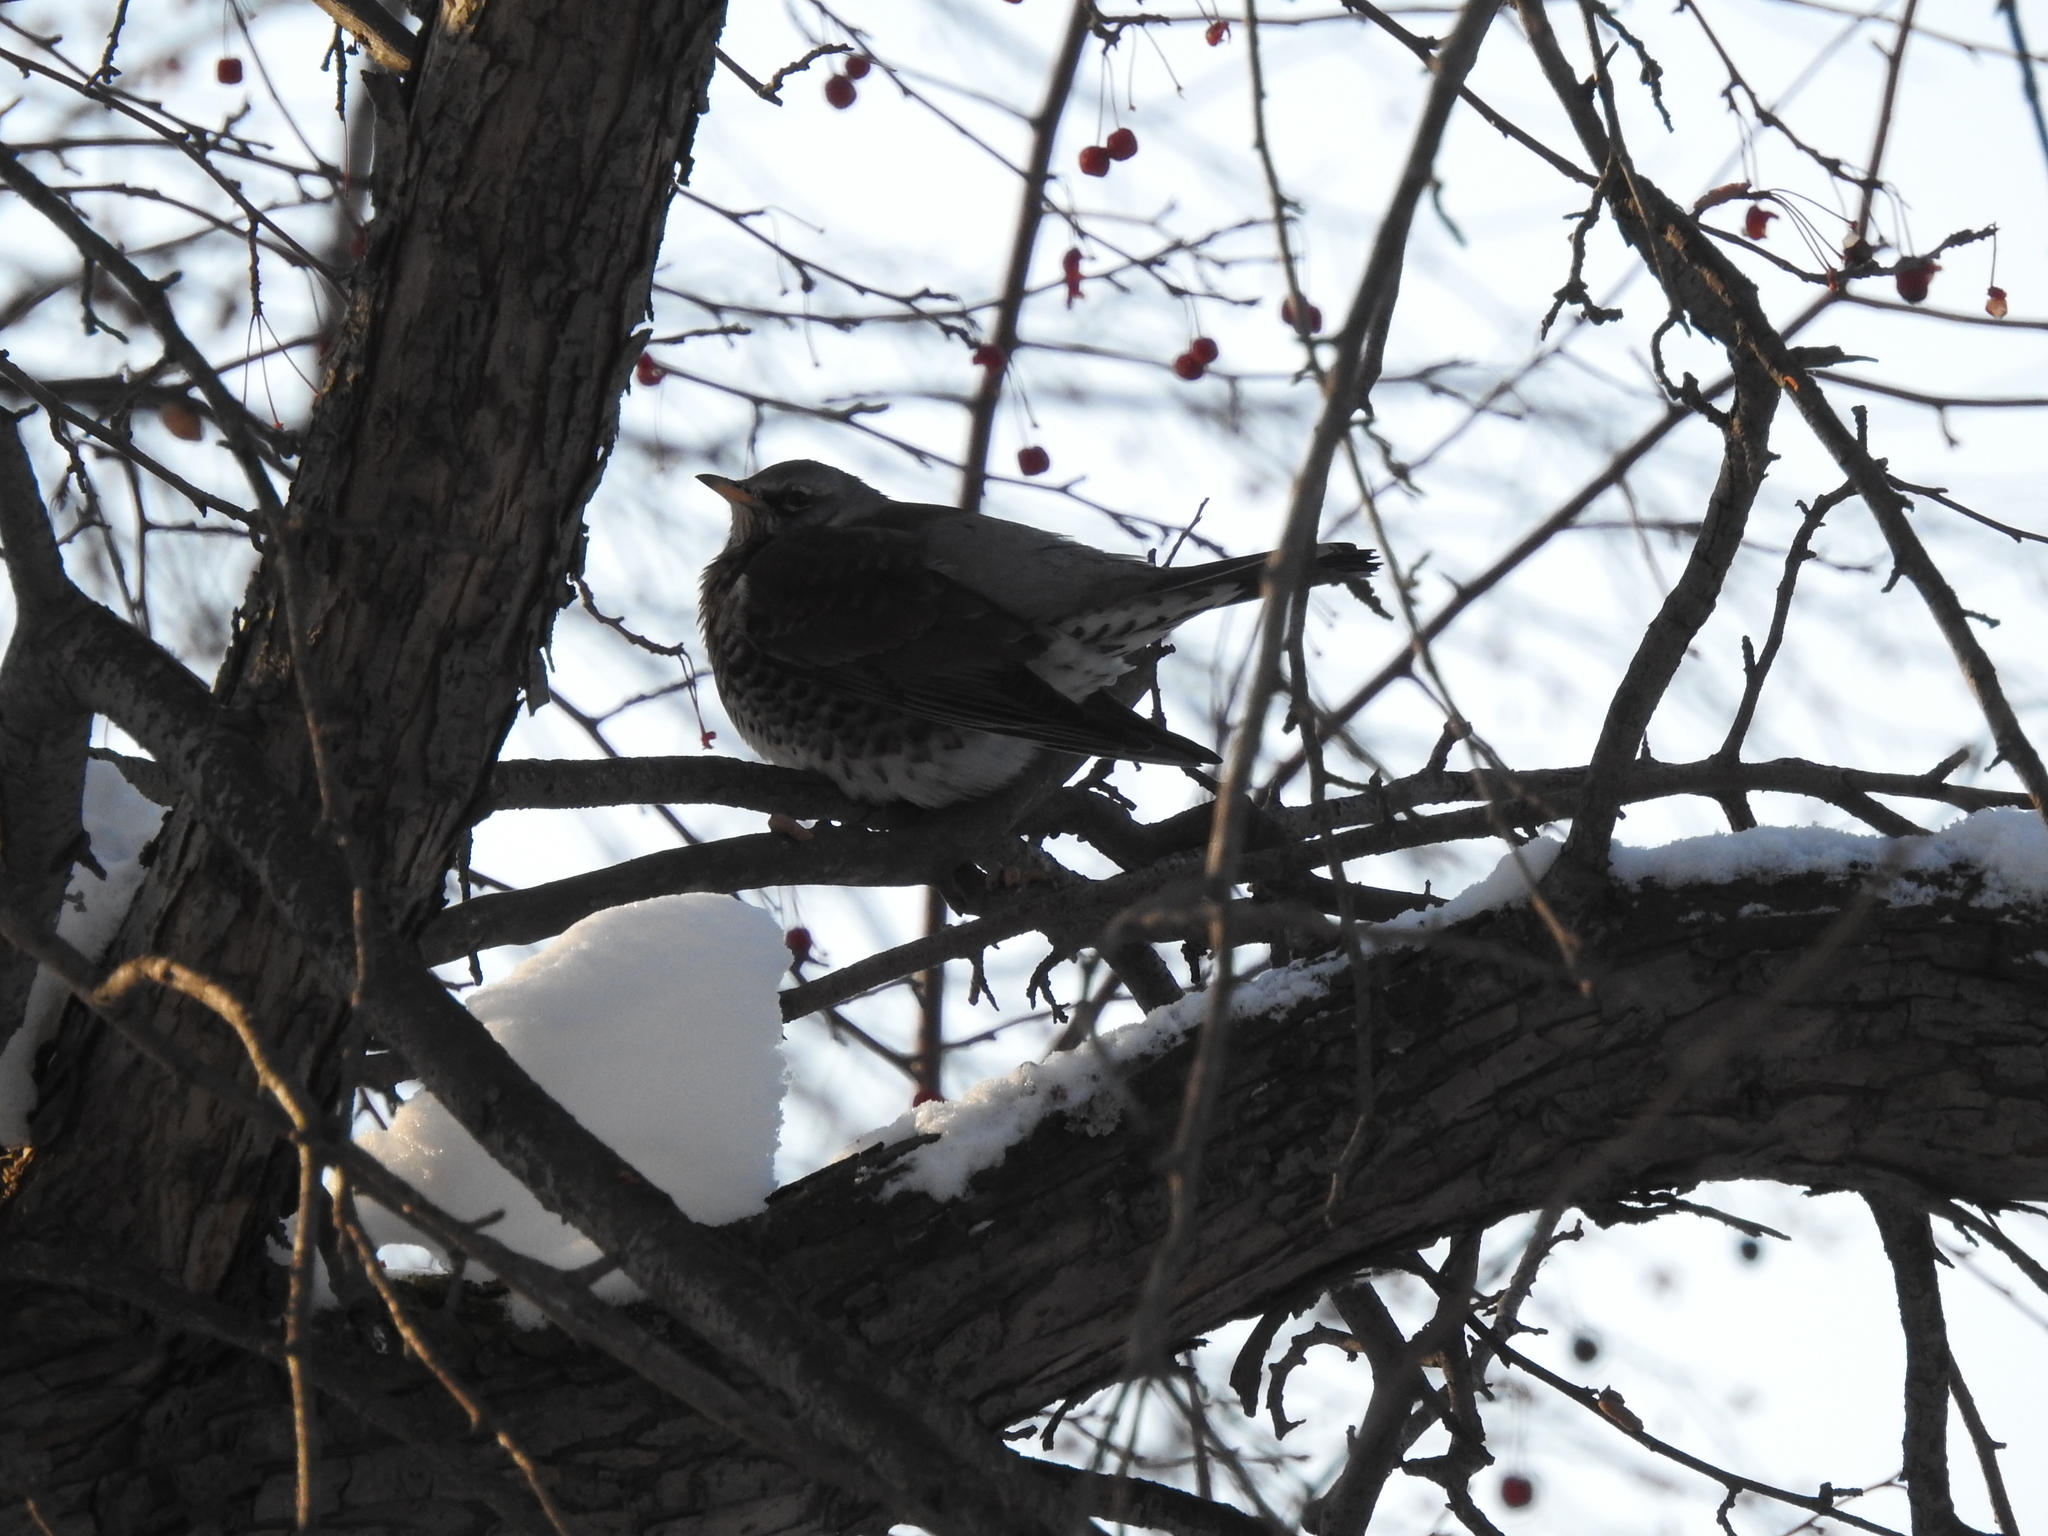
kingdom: Animalia
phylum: Chordata
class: Aves
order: Passeriformes
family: Turdidae
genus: Turdus
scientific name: Turdus pilaris
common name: Fieldfare
